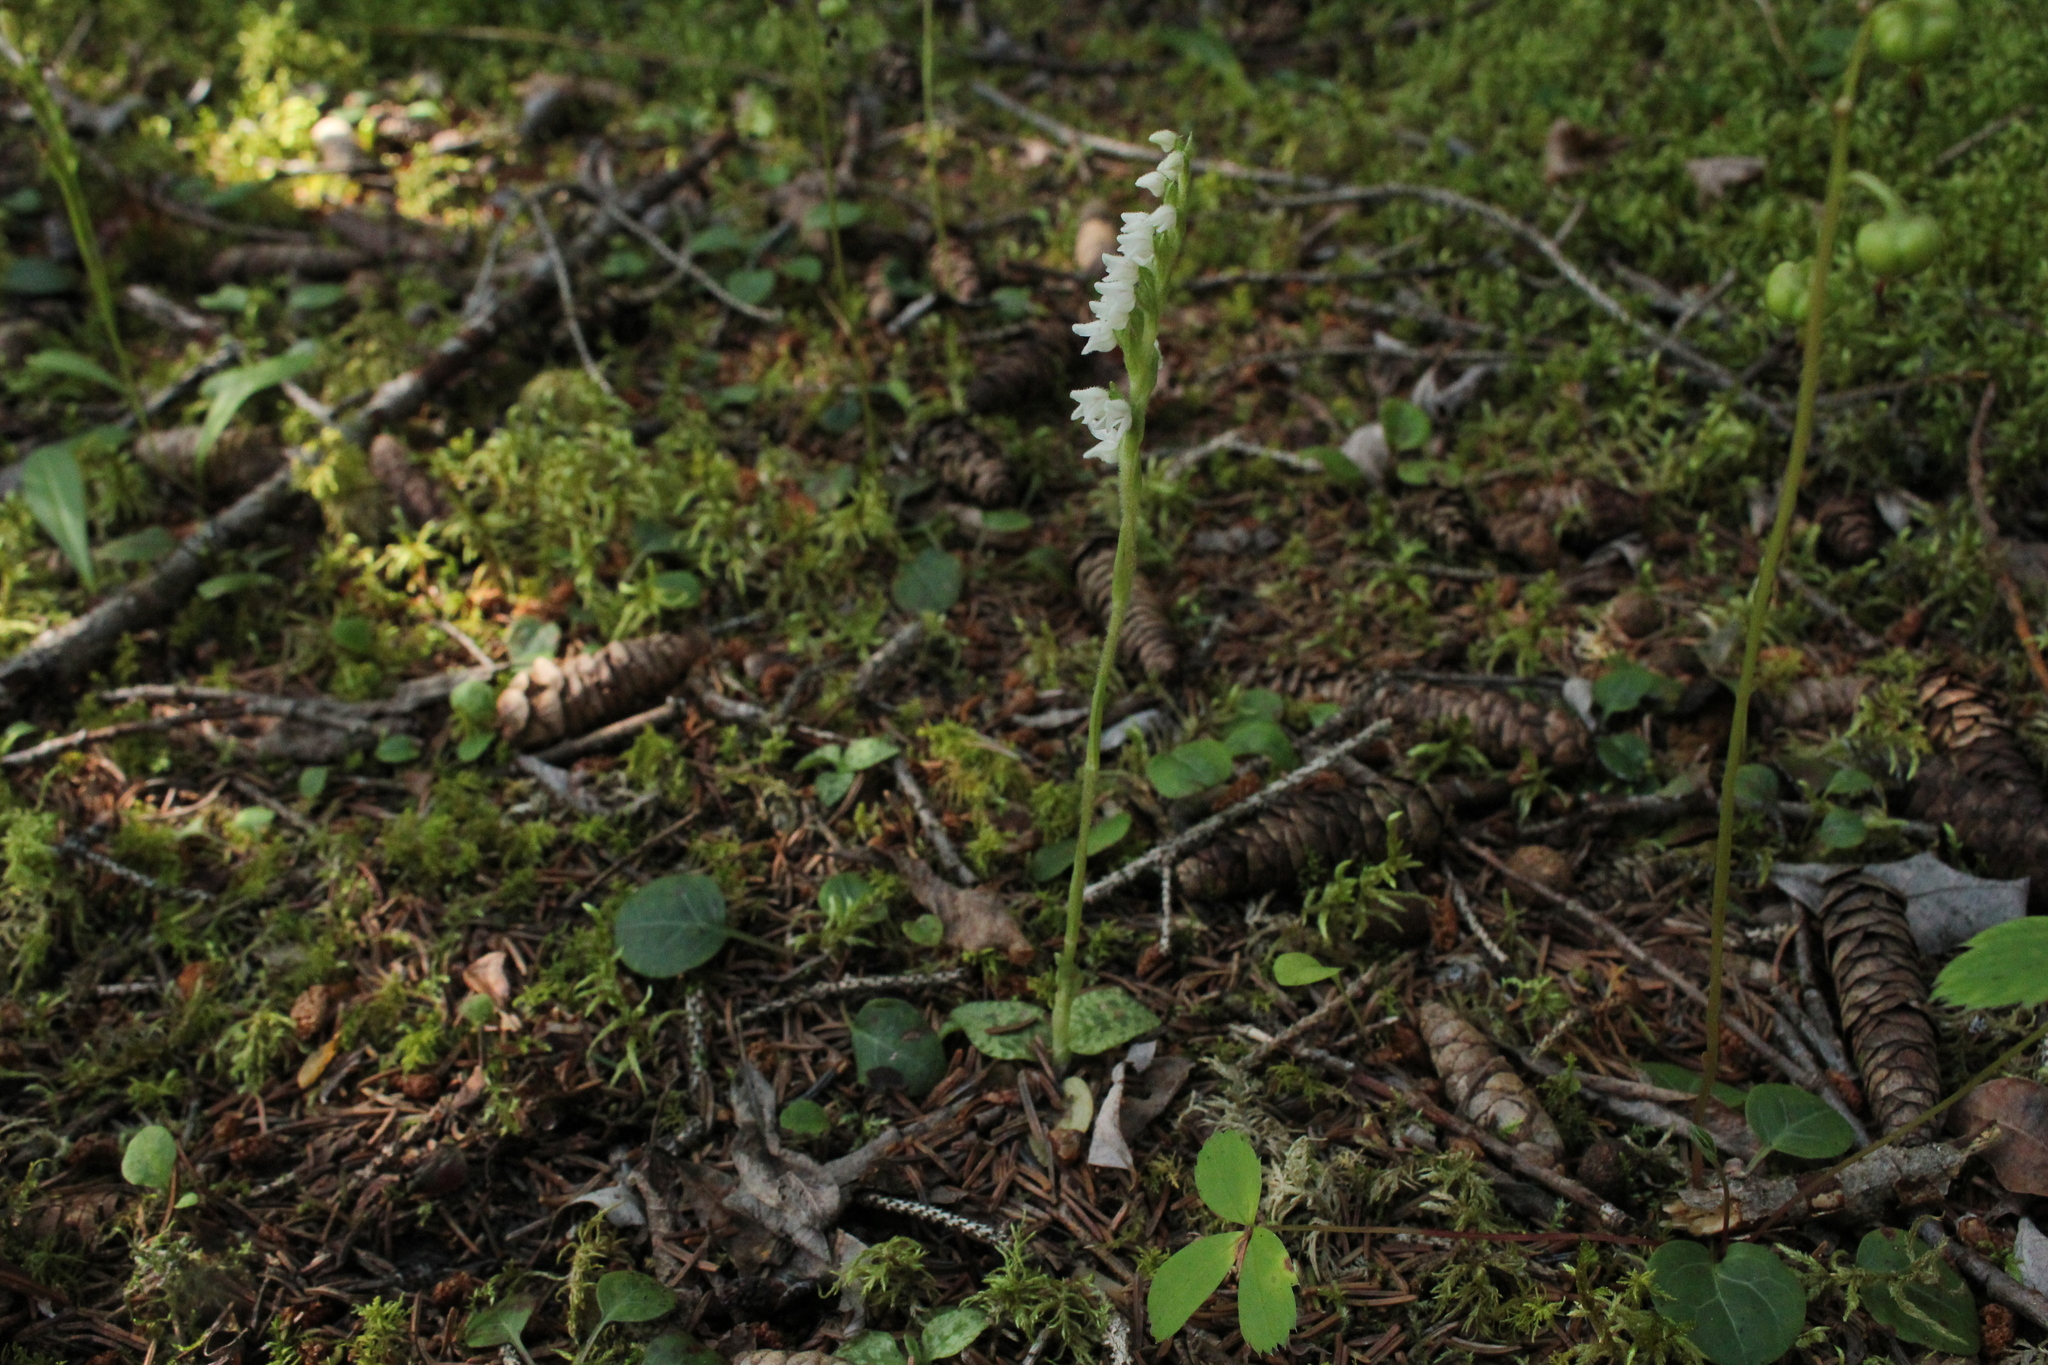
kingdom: Plantae
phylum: Tracheophyta
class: Liliopsida
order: Asparagales
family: Orchidaceae
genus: Goodyera
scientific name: Goodyera repens
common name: Creeping lady's-tresses
